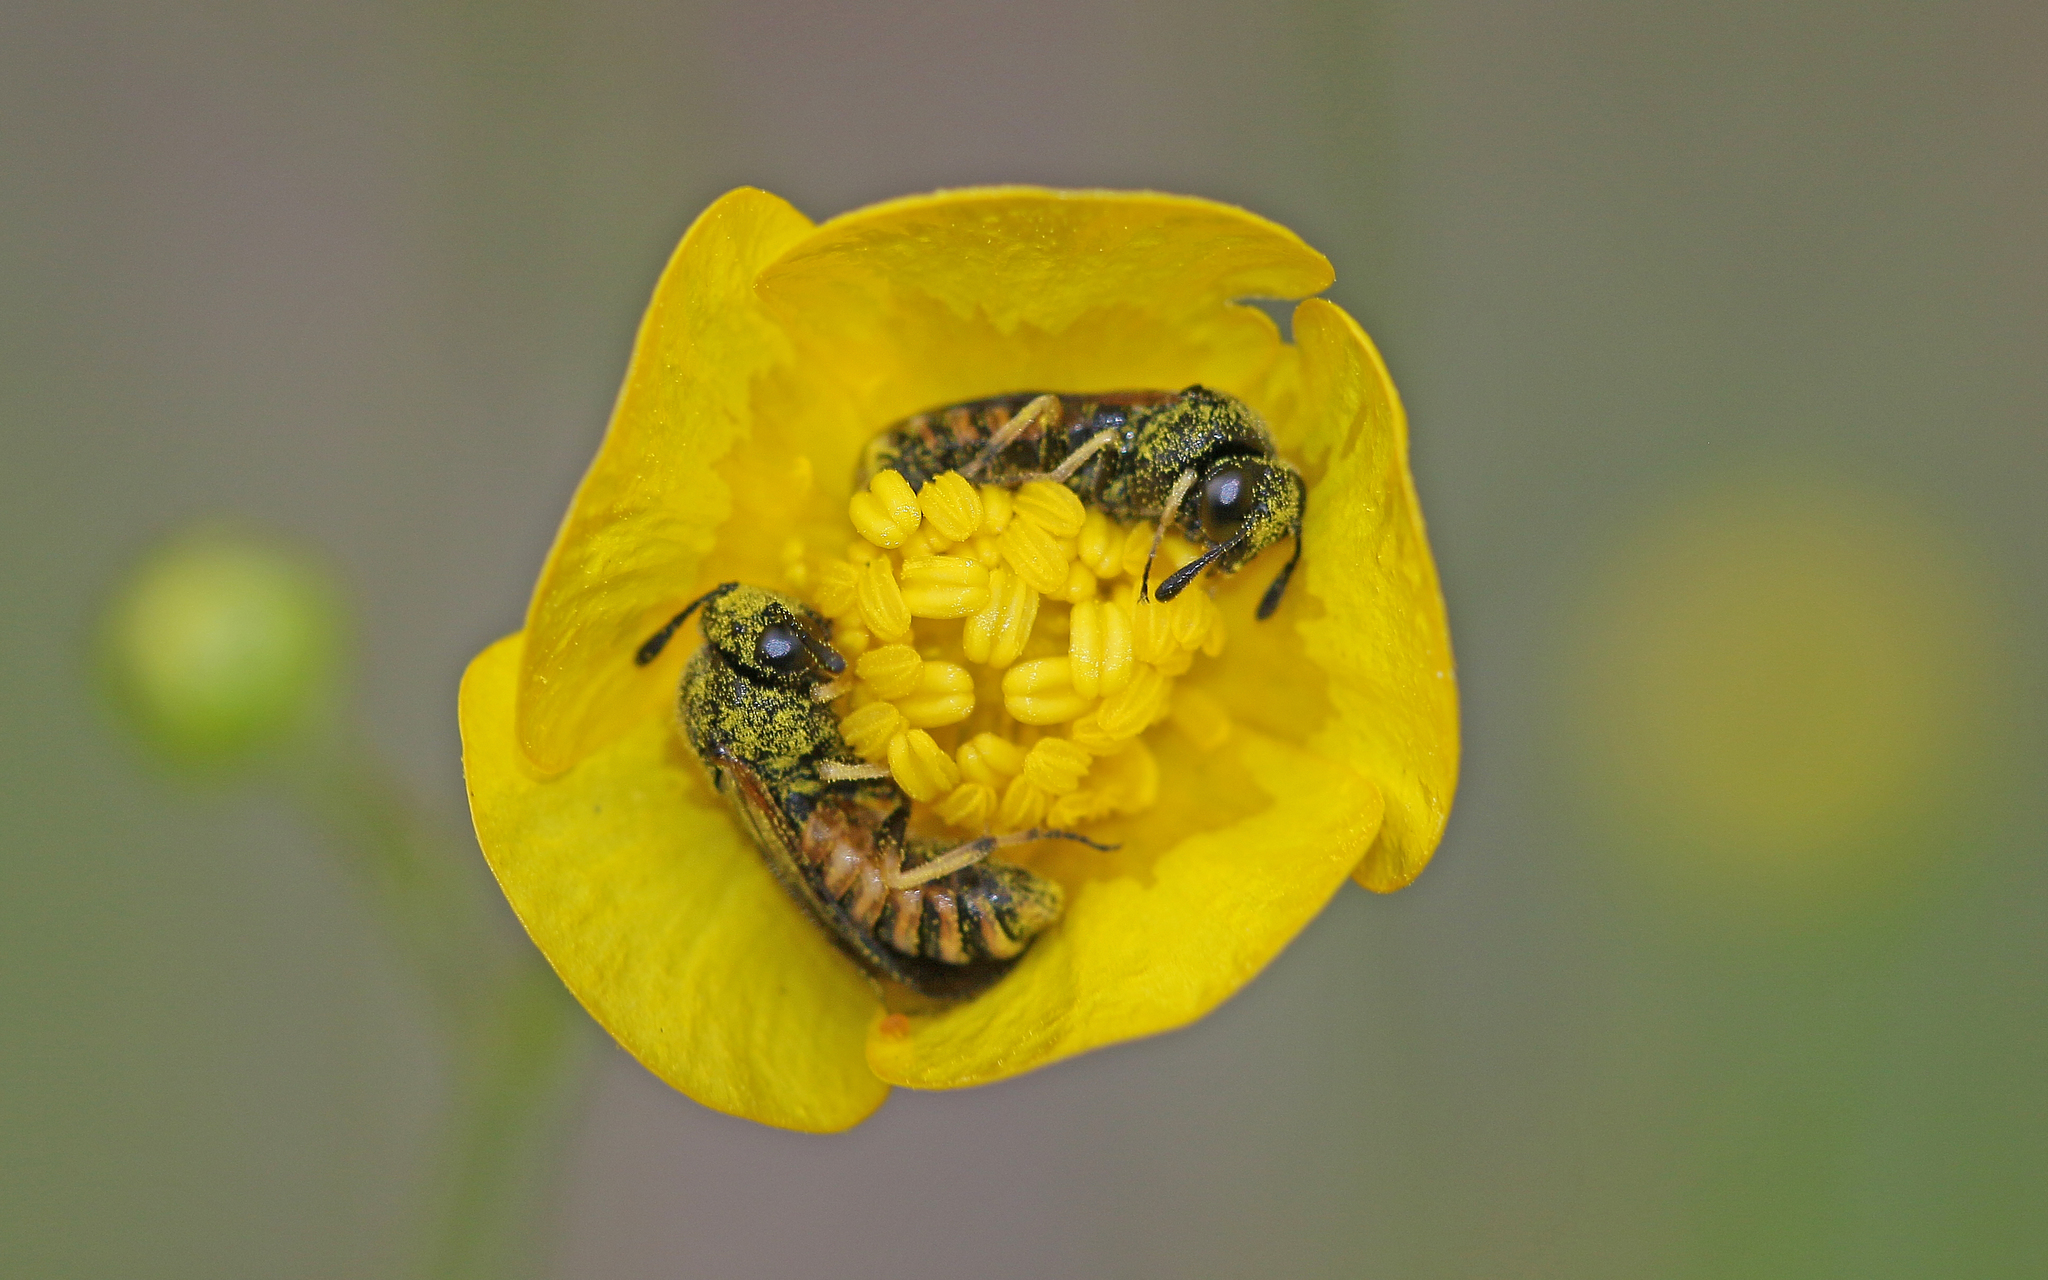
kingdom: Animalia
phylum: Arthropoda
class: Insecta
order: Hymenoptera
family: Cimbicidae
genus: Corynis
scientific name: Corynis crassicornis
